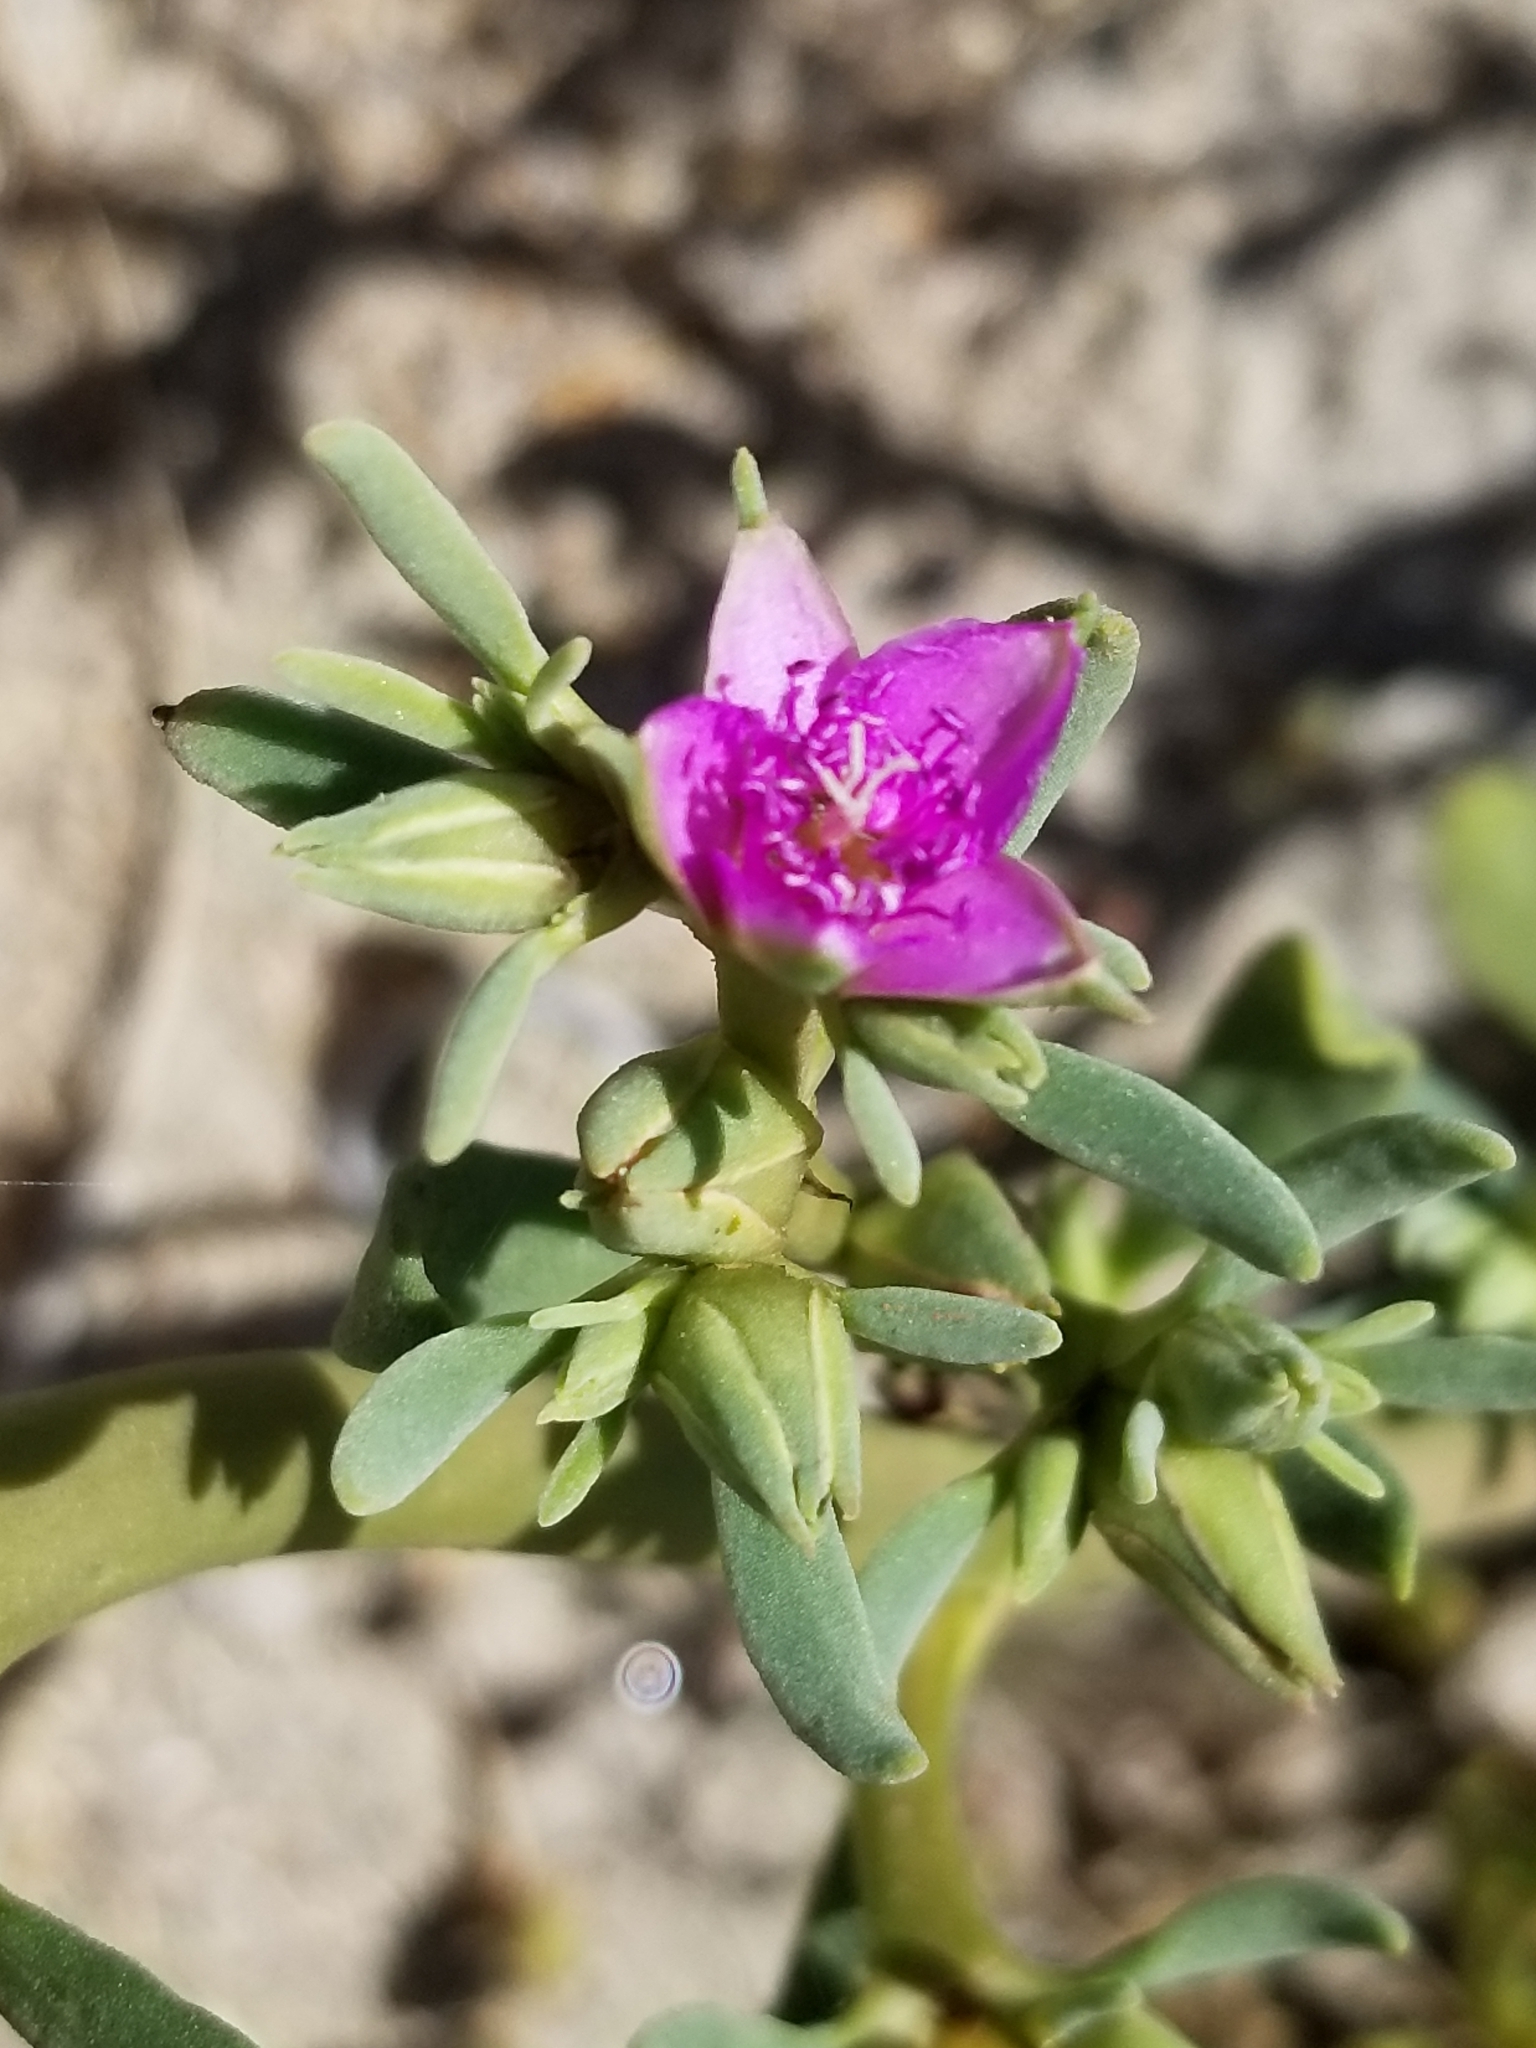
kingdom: Plantae
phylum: Tracheophyta
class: Magnoliopsida
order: Caryophyllales
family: Aizoaceae
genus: Sesuvium
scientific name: Sesuvium revolutifolium
